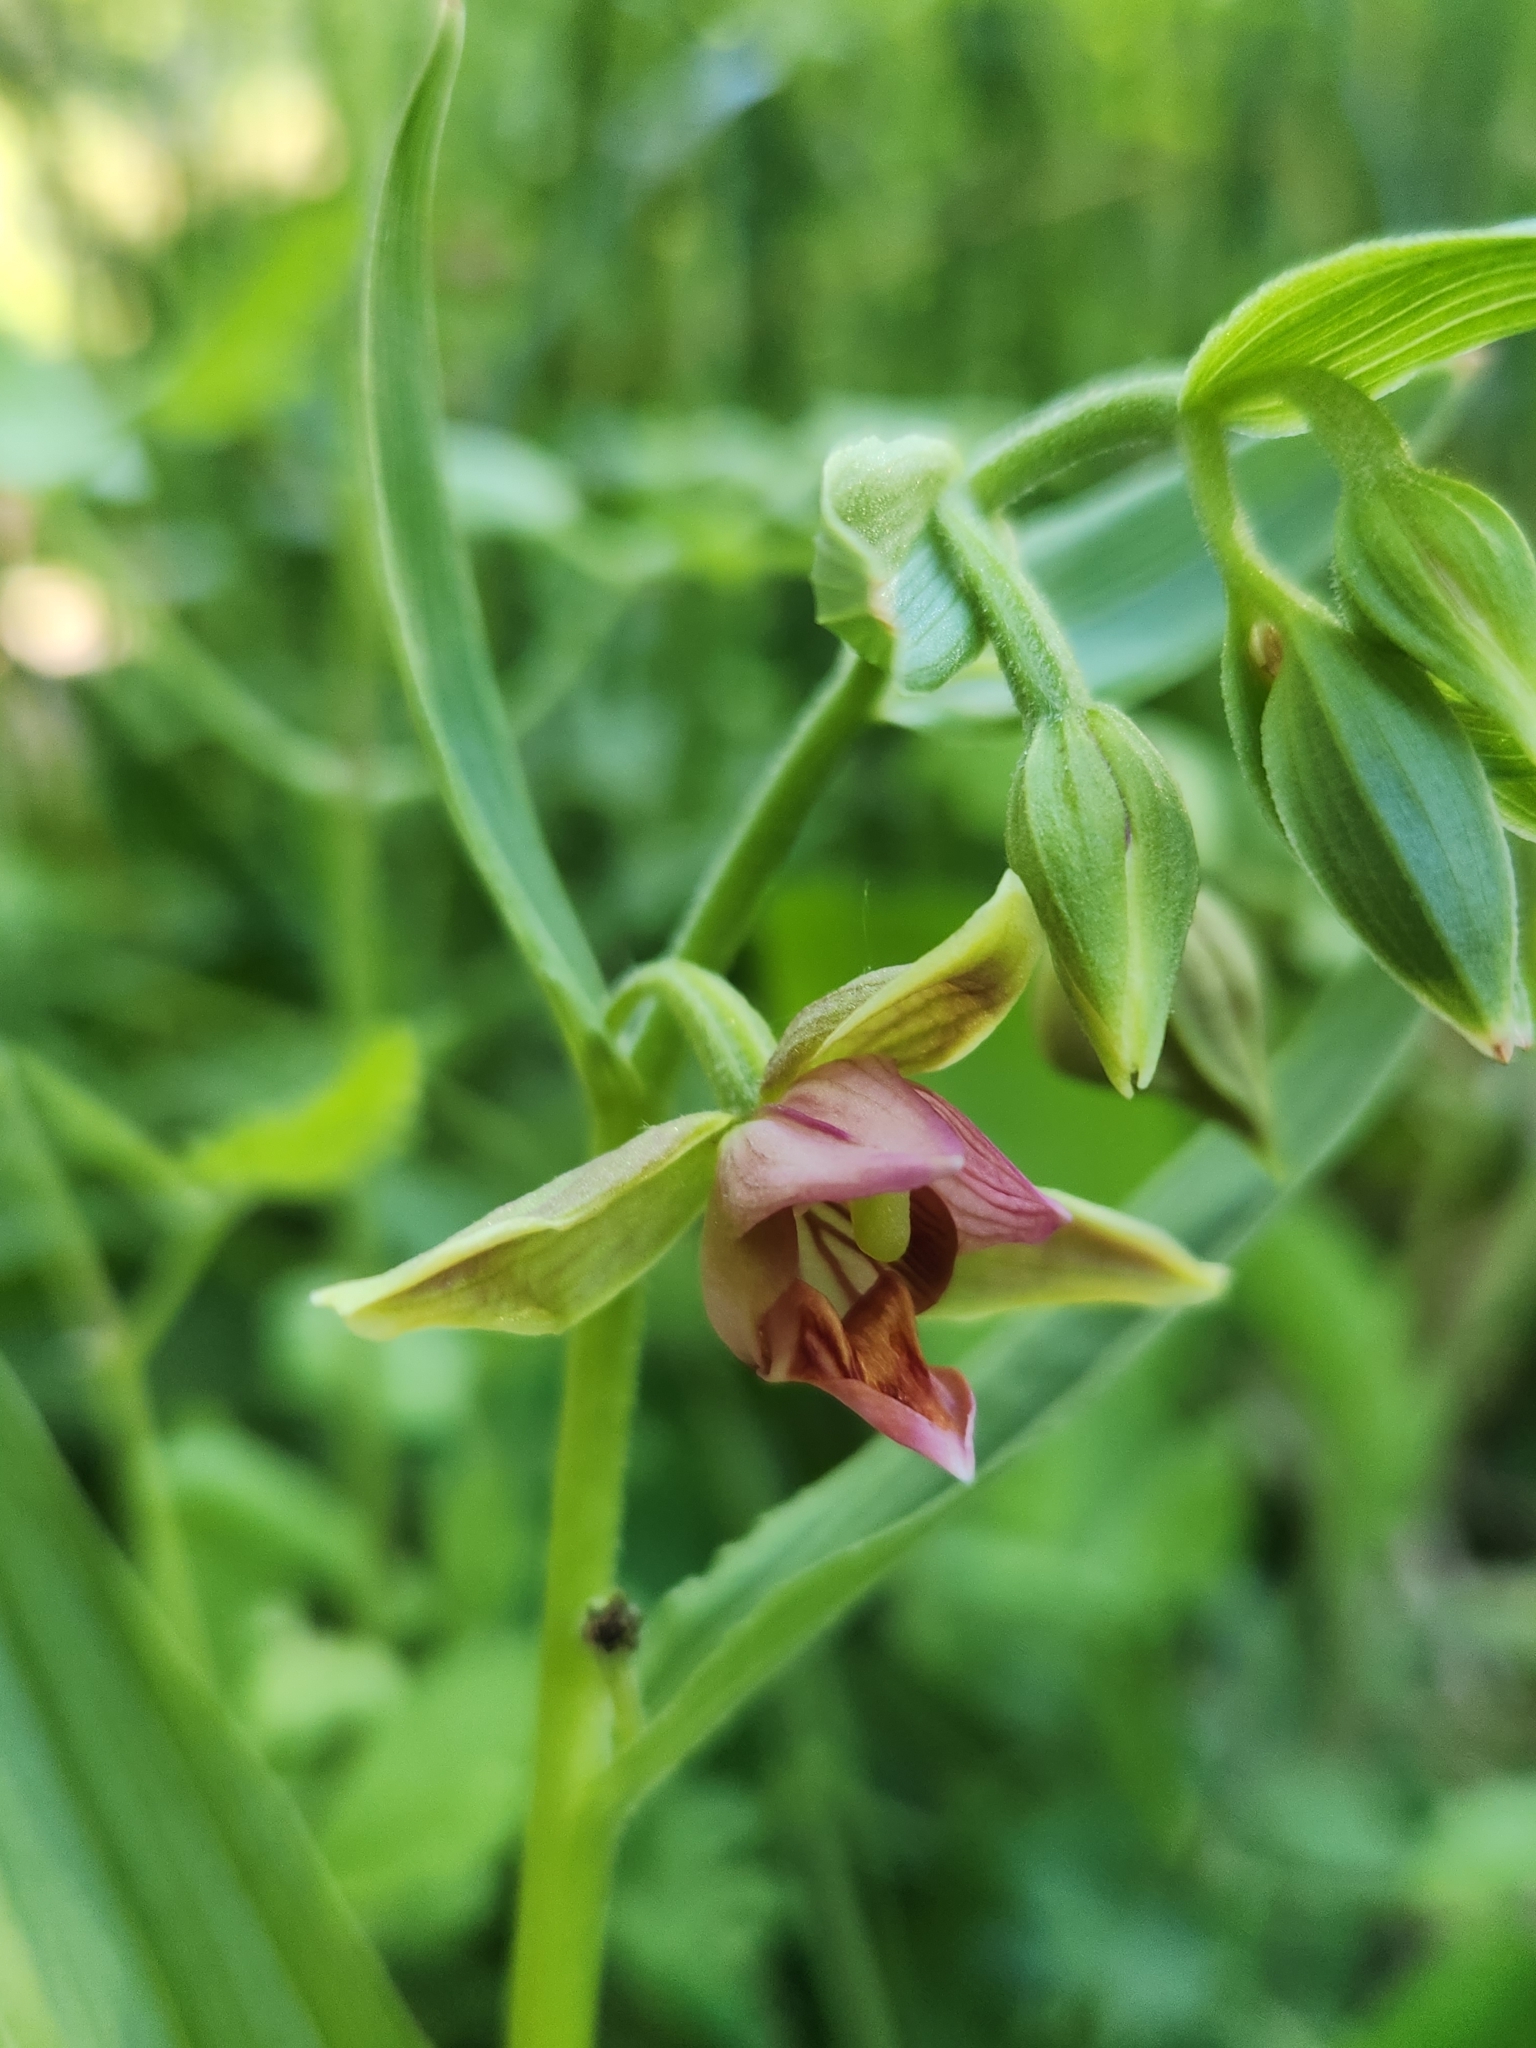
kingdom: Plantae
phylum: Tracheophyta
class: Liliopsida
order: Asparagales
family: Orchidaceae
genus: Epipactis
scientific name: Epipactis gigantea
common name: Chatterbox
